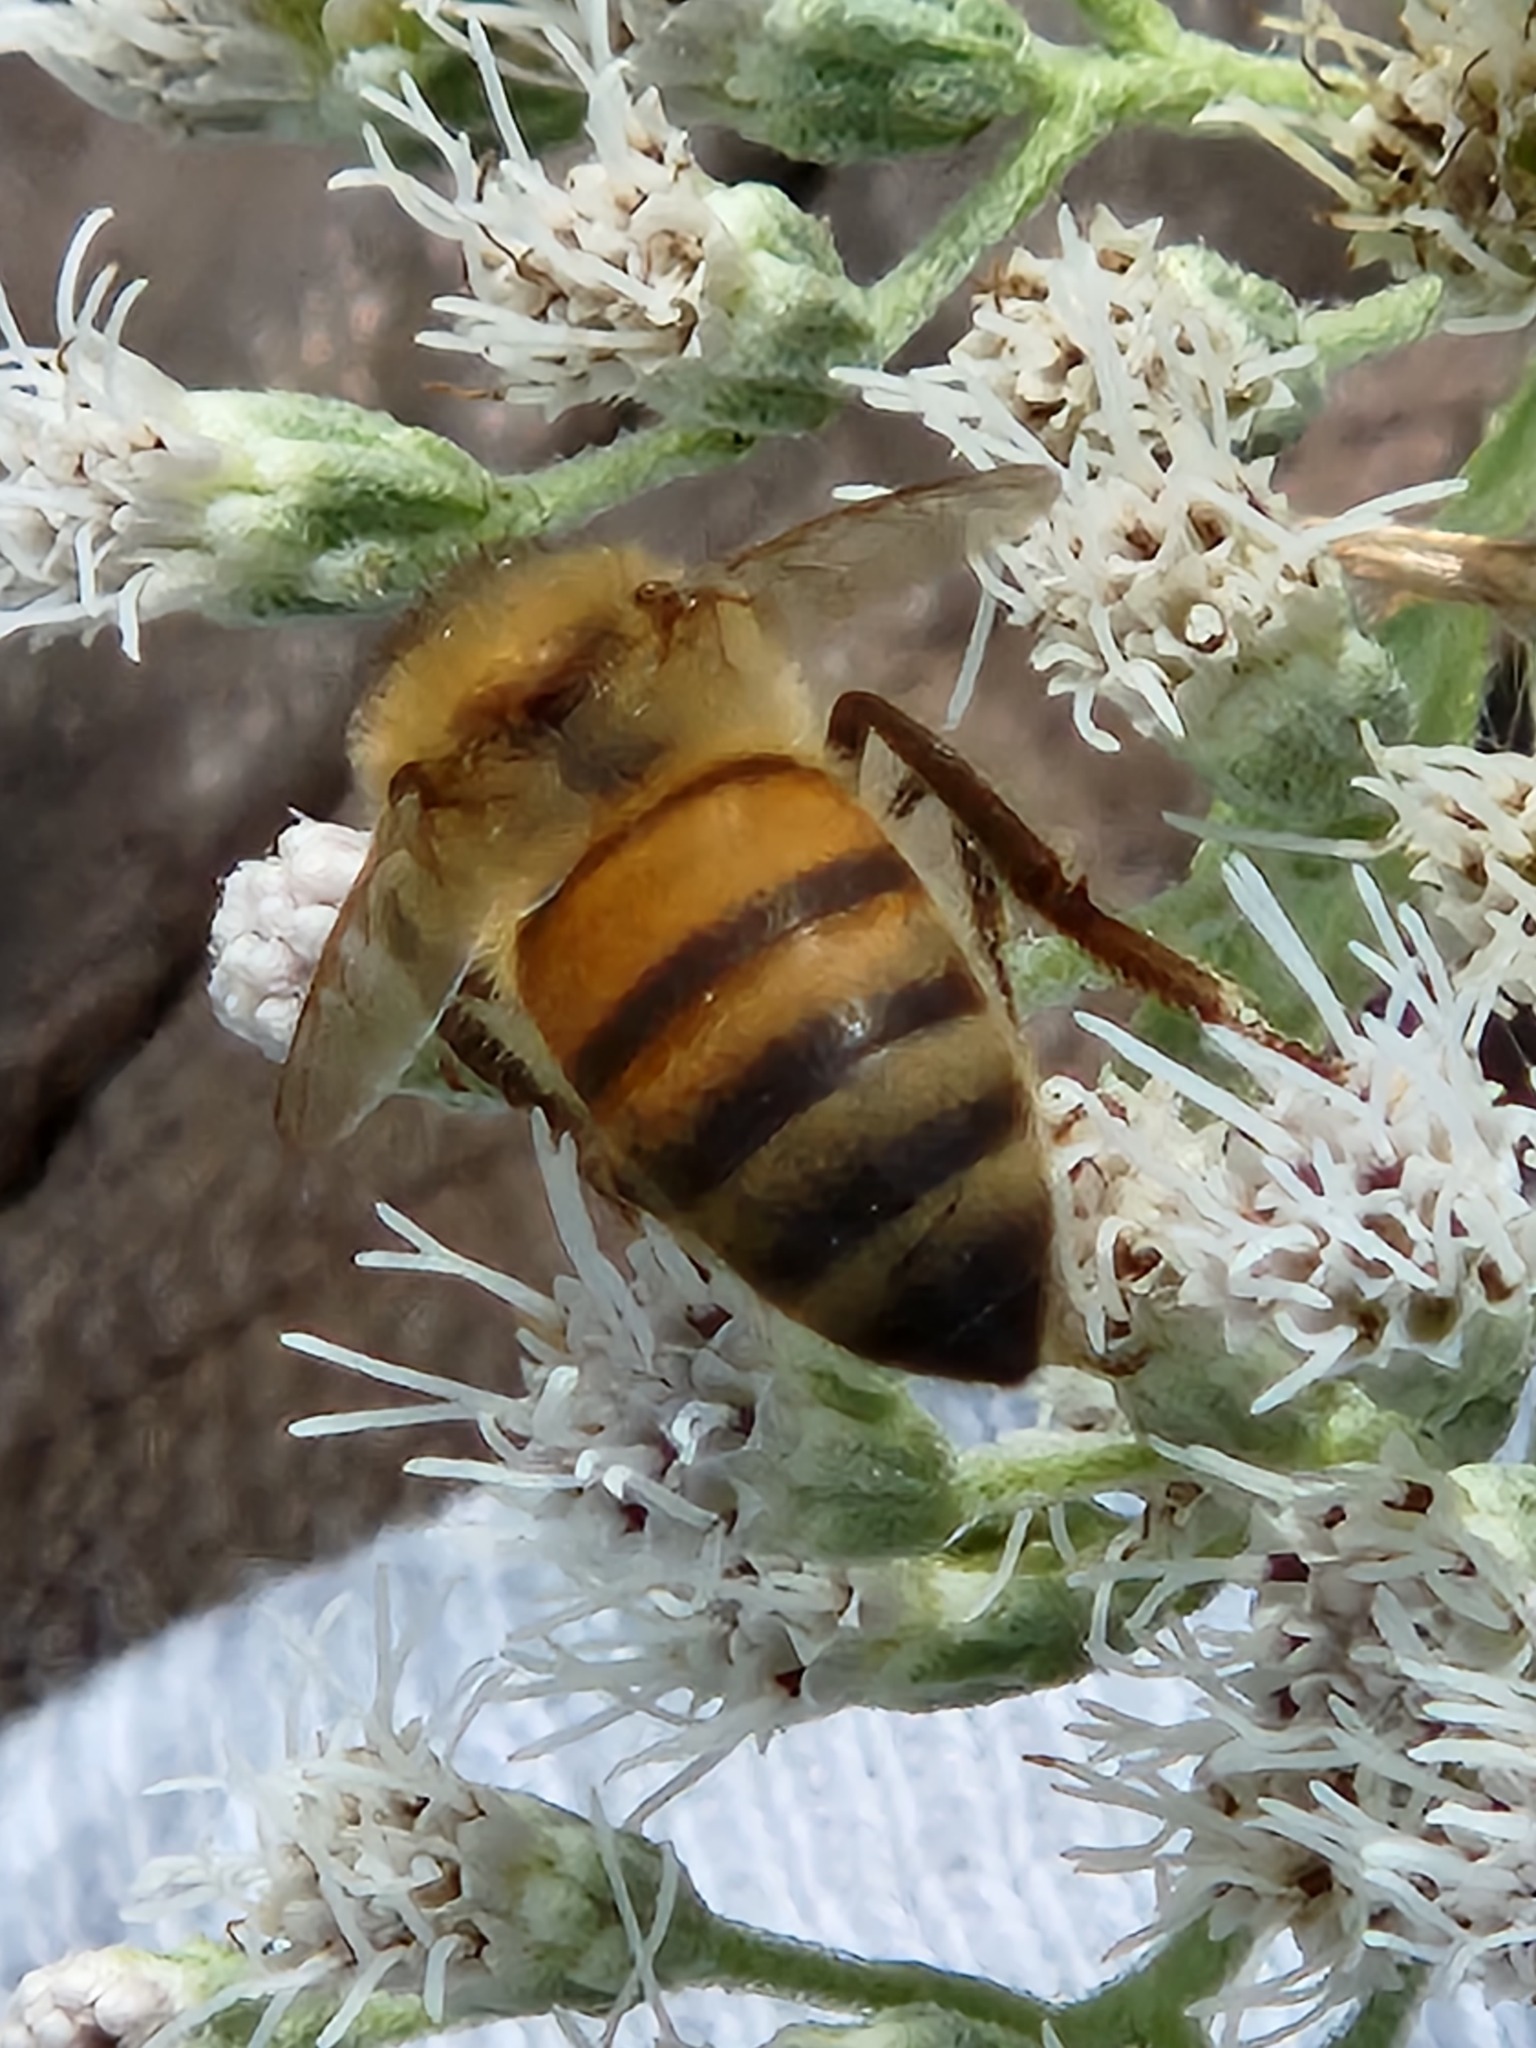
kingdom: Animalia
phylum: Arthropoda
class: Insecta
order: Hymenoptera
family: Apidae
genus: Apis
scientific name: Apis mellifera
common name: Honey bee
